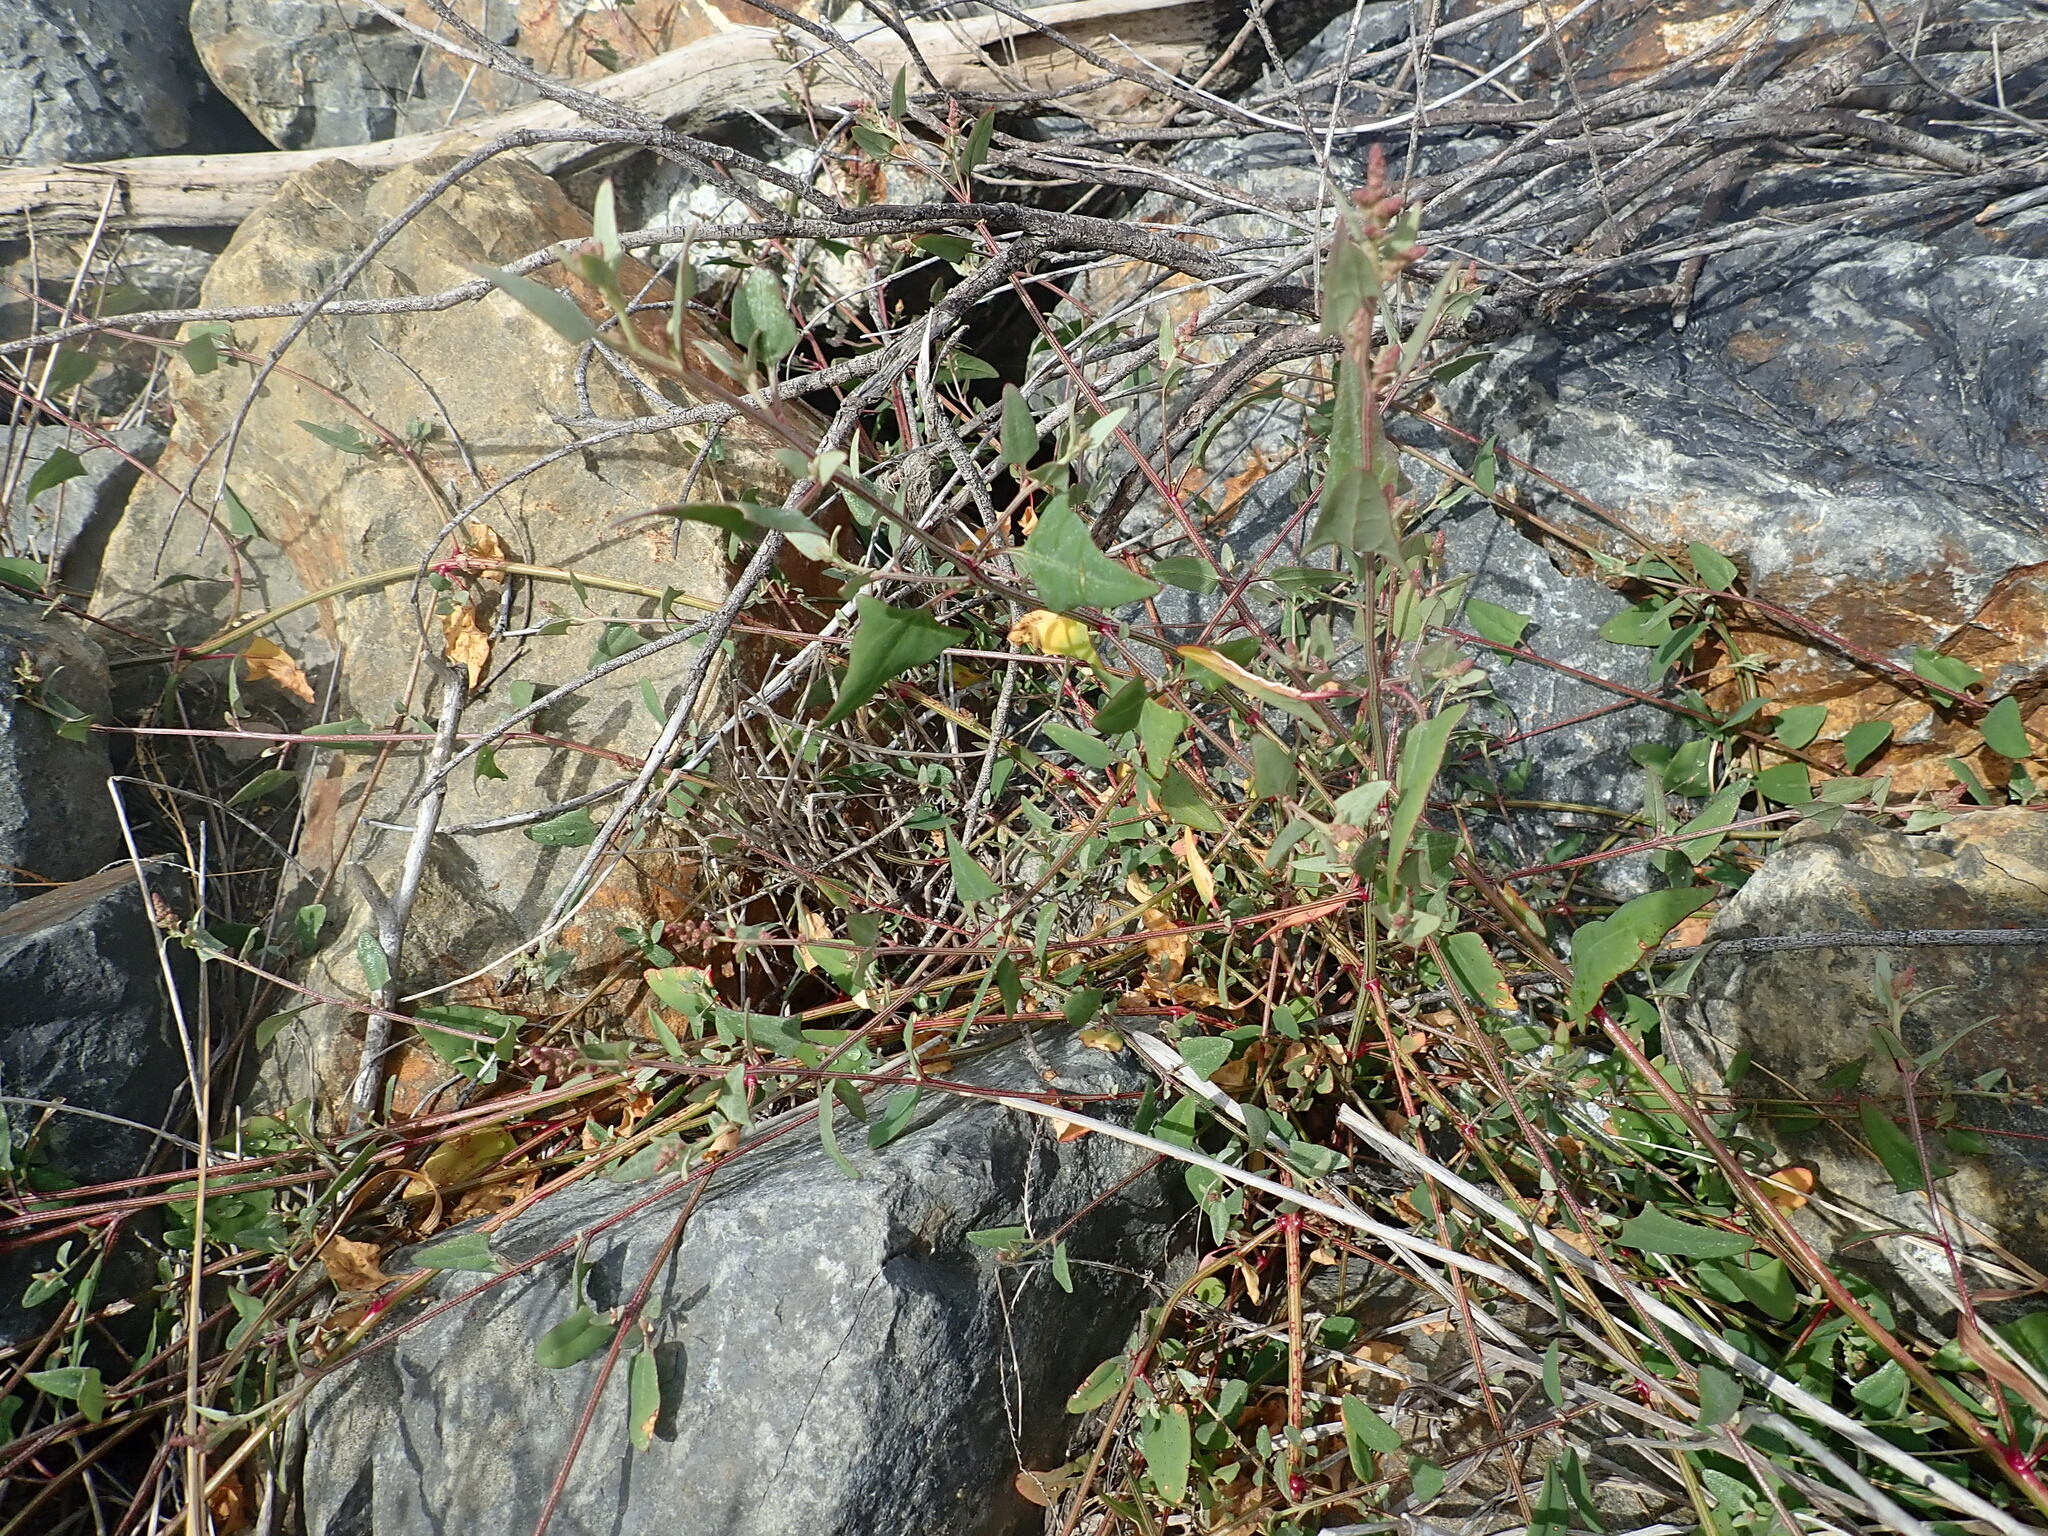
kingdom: Plantae
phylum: Tracheophyta
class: Magnoliopsida
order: Caryophyllales
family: Amaranthaceae
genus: Atriplex
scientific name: Atriplex prostrata
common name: Spear-leaved orache
